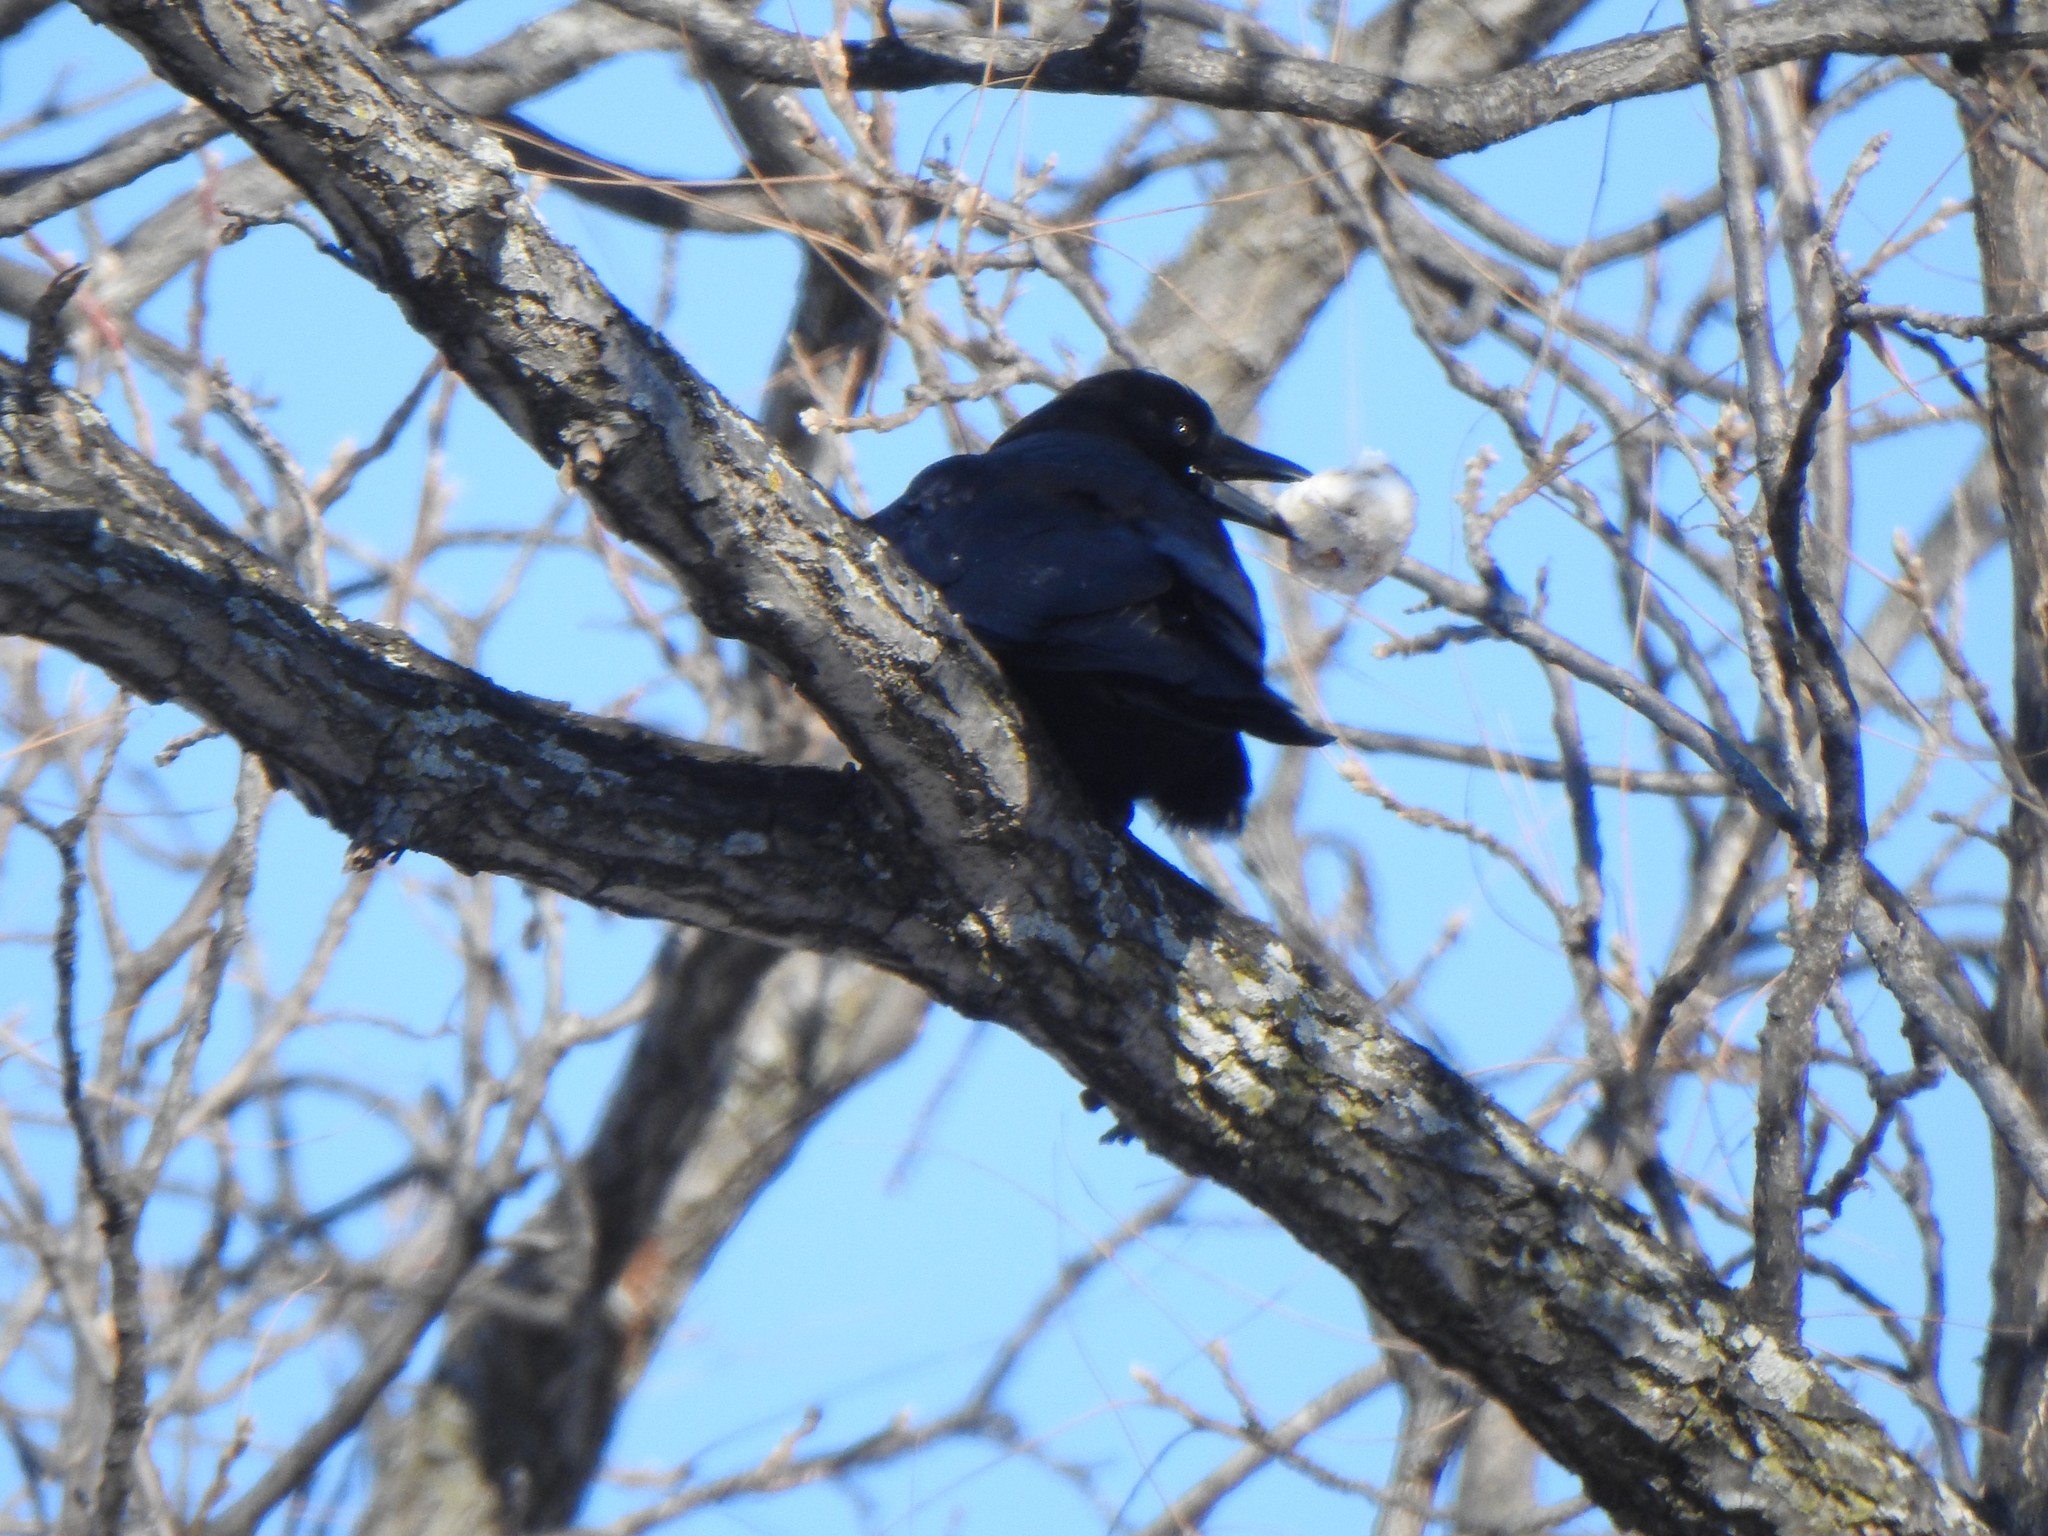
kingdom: Animalia
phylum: Chordata
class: Aves
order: Passeriformes
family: Corvidae
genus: Corvus
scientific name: Corvus brachyrhynchos
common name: American crow
